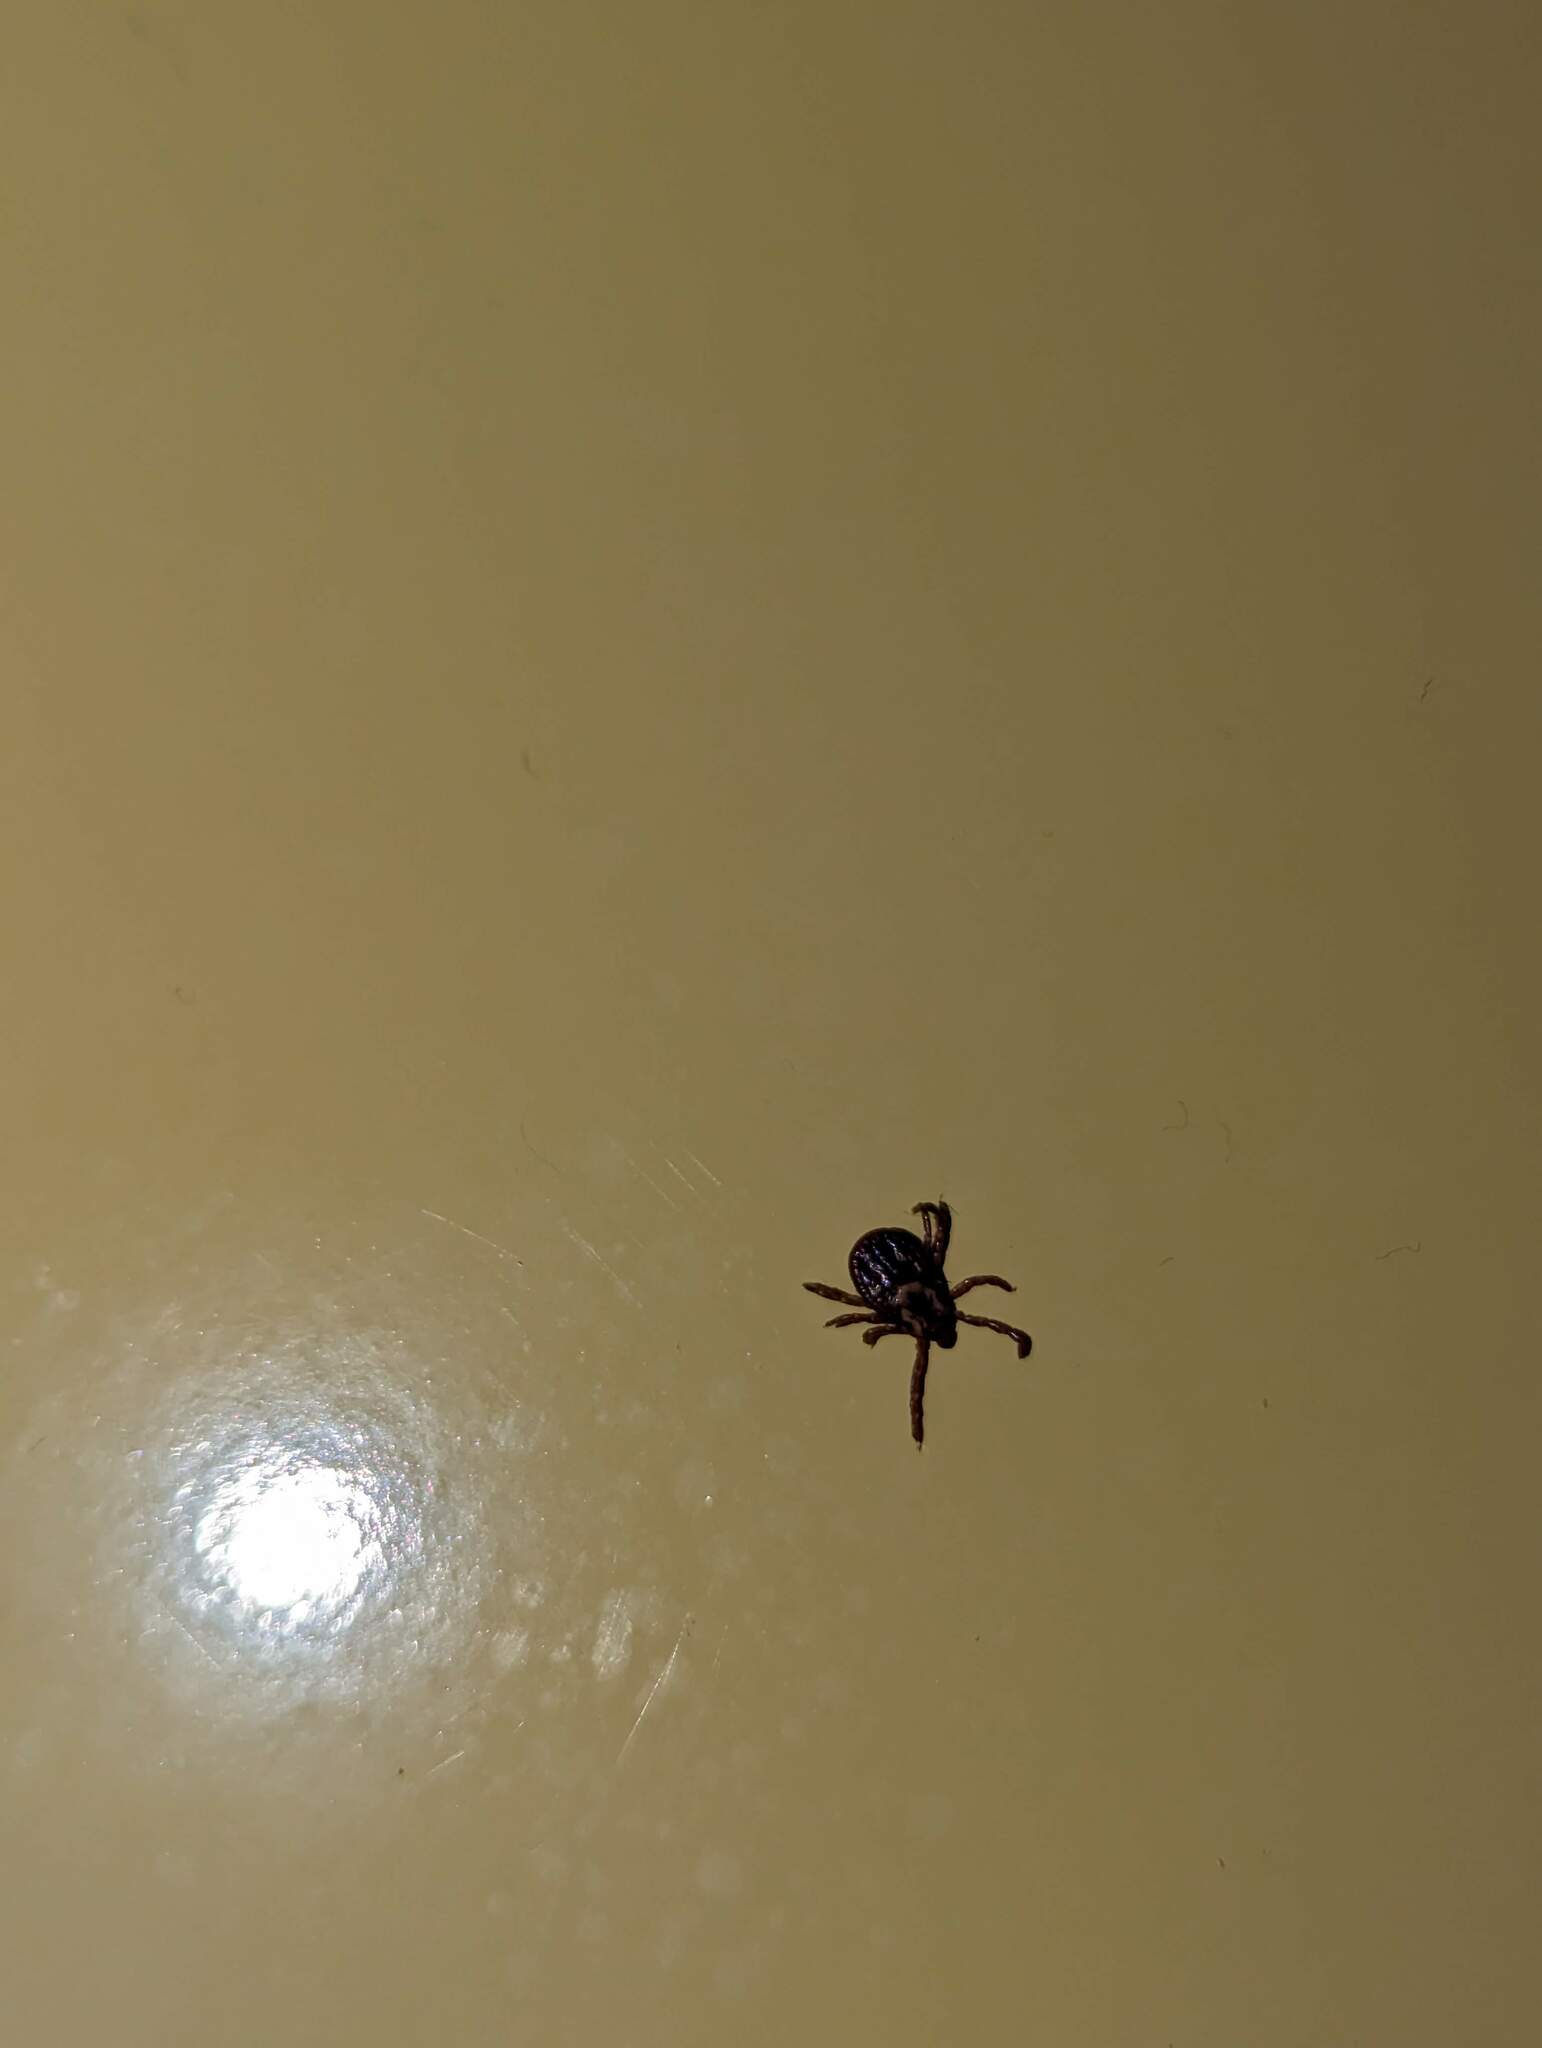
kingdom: Animalia
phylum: Arthropoda
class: Arachnida
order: Ixodida
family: Ixodidae
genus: Dermacentor
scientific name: Dermacentor variabilis
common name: American dog tick
